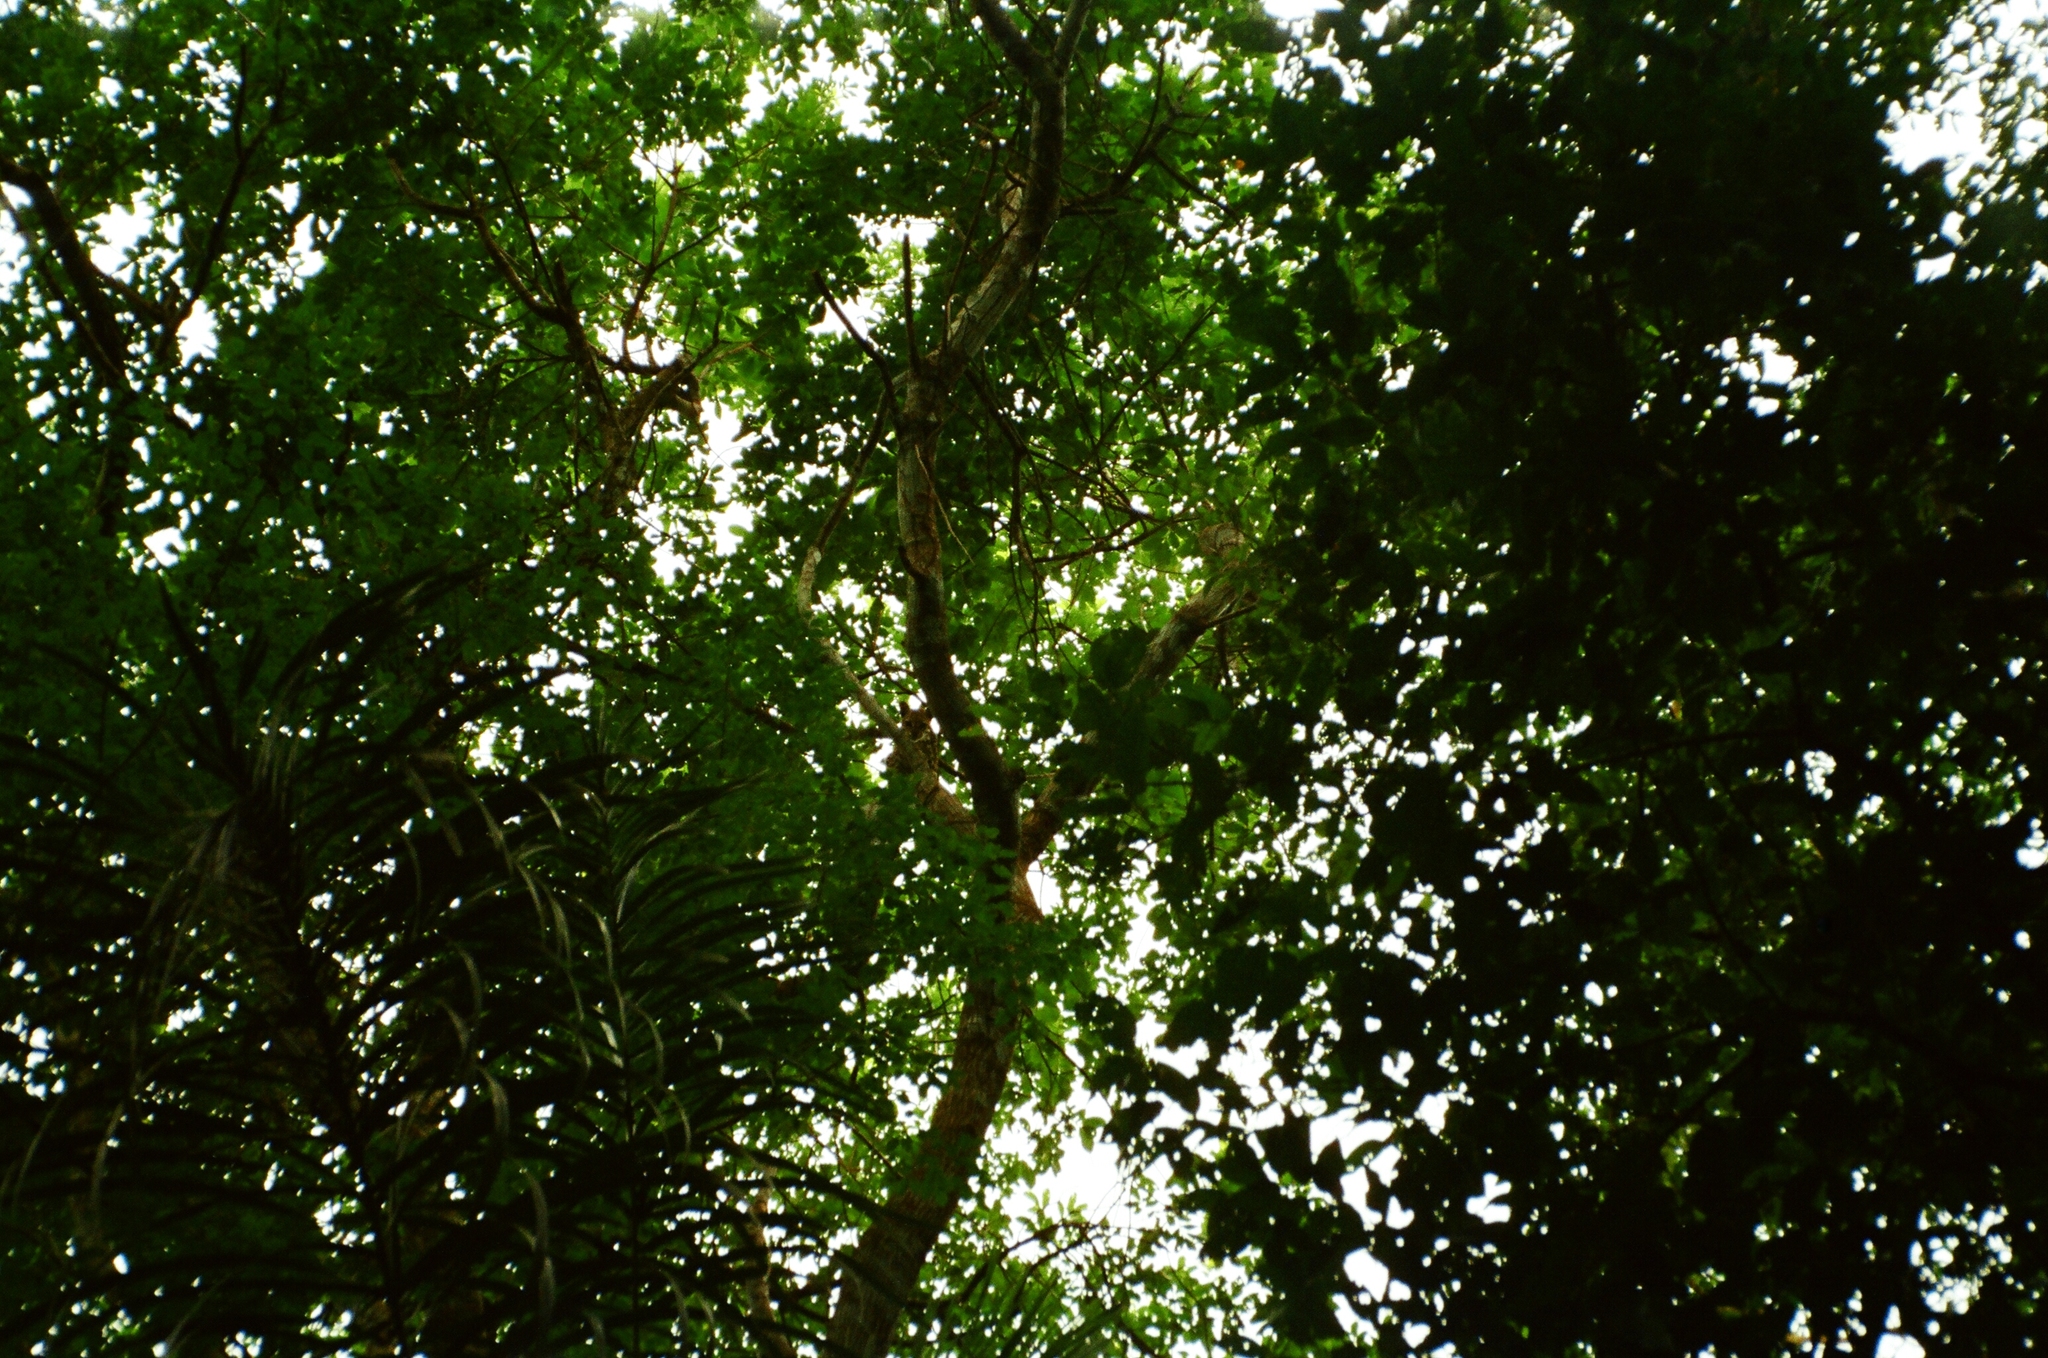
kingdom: Animalia
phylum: Chordata
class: Mammalia
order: Carnivora
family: Felidae
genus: Leopardus
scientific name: Leopardus wiedii
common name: Margay
